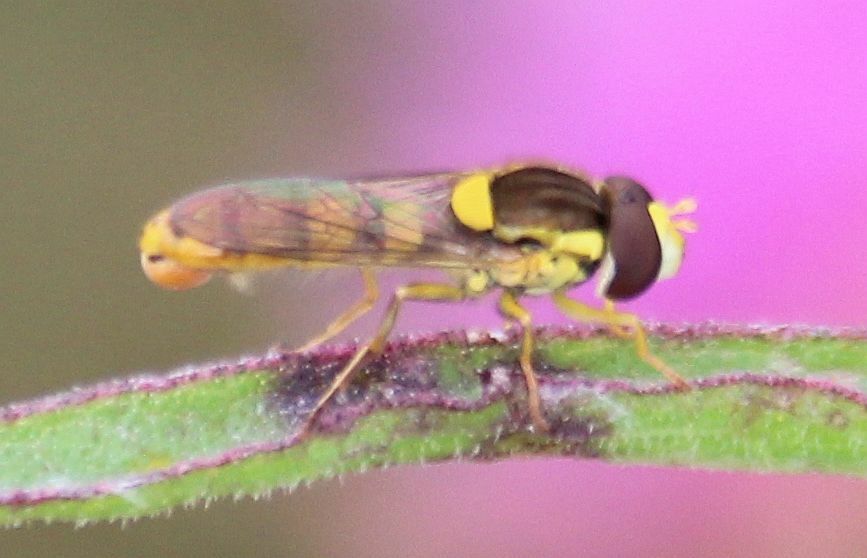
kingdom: Animalia
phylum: Arthropoda
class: Insecta
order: Diptera
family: Syrphidae
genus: Sphaerophoria
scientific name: Sphaerophoria
